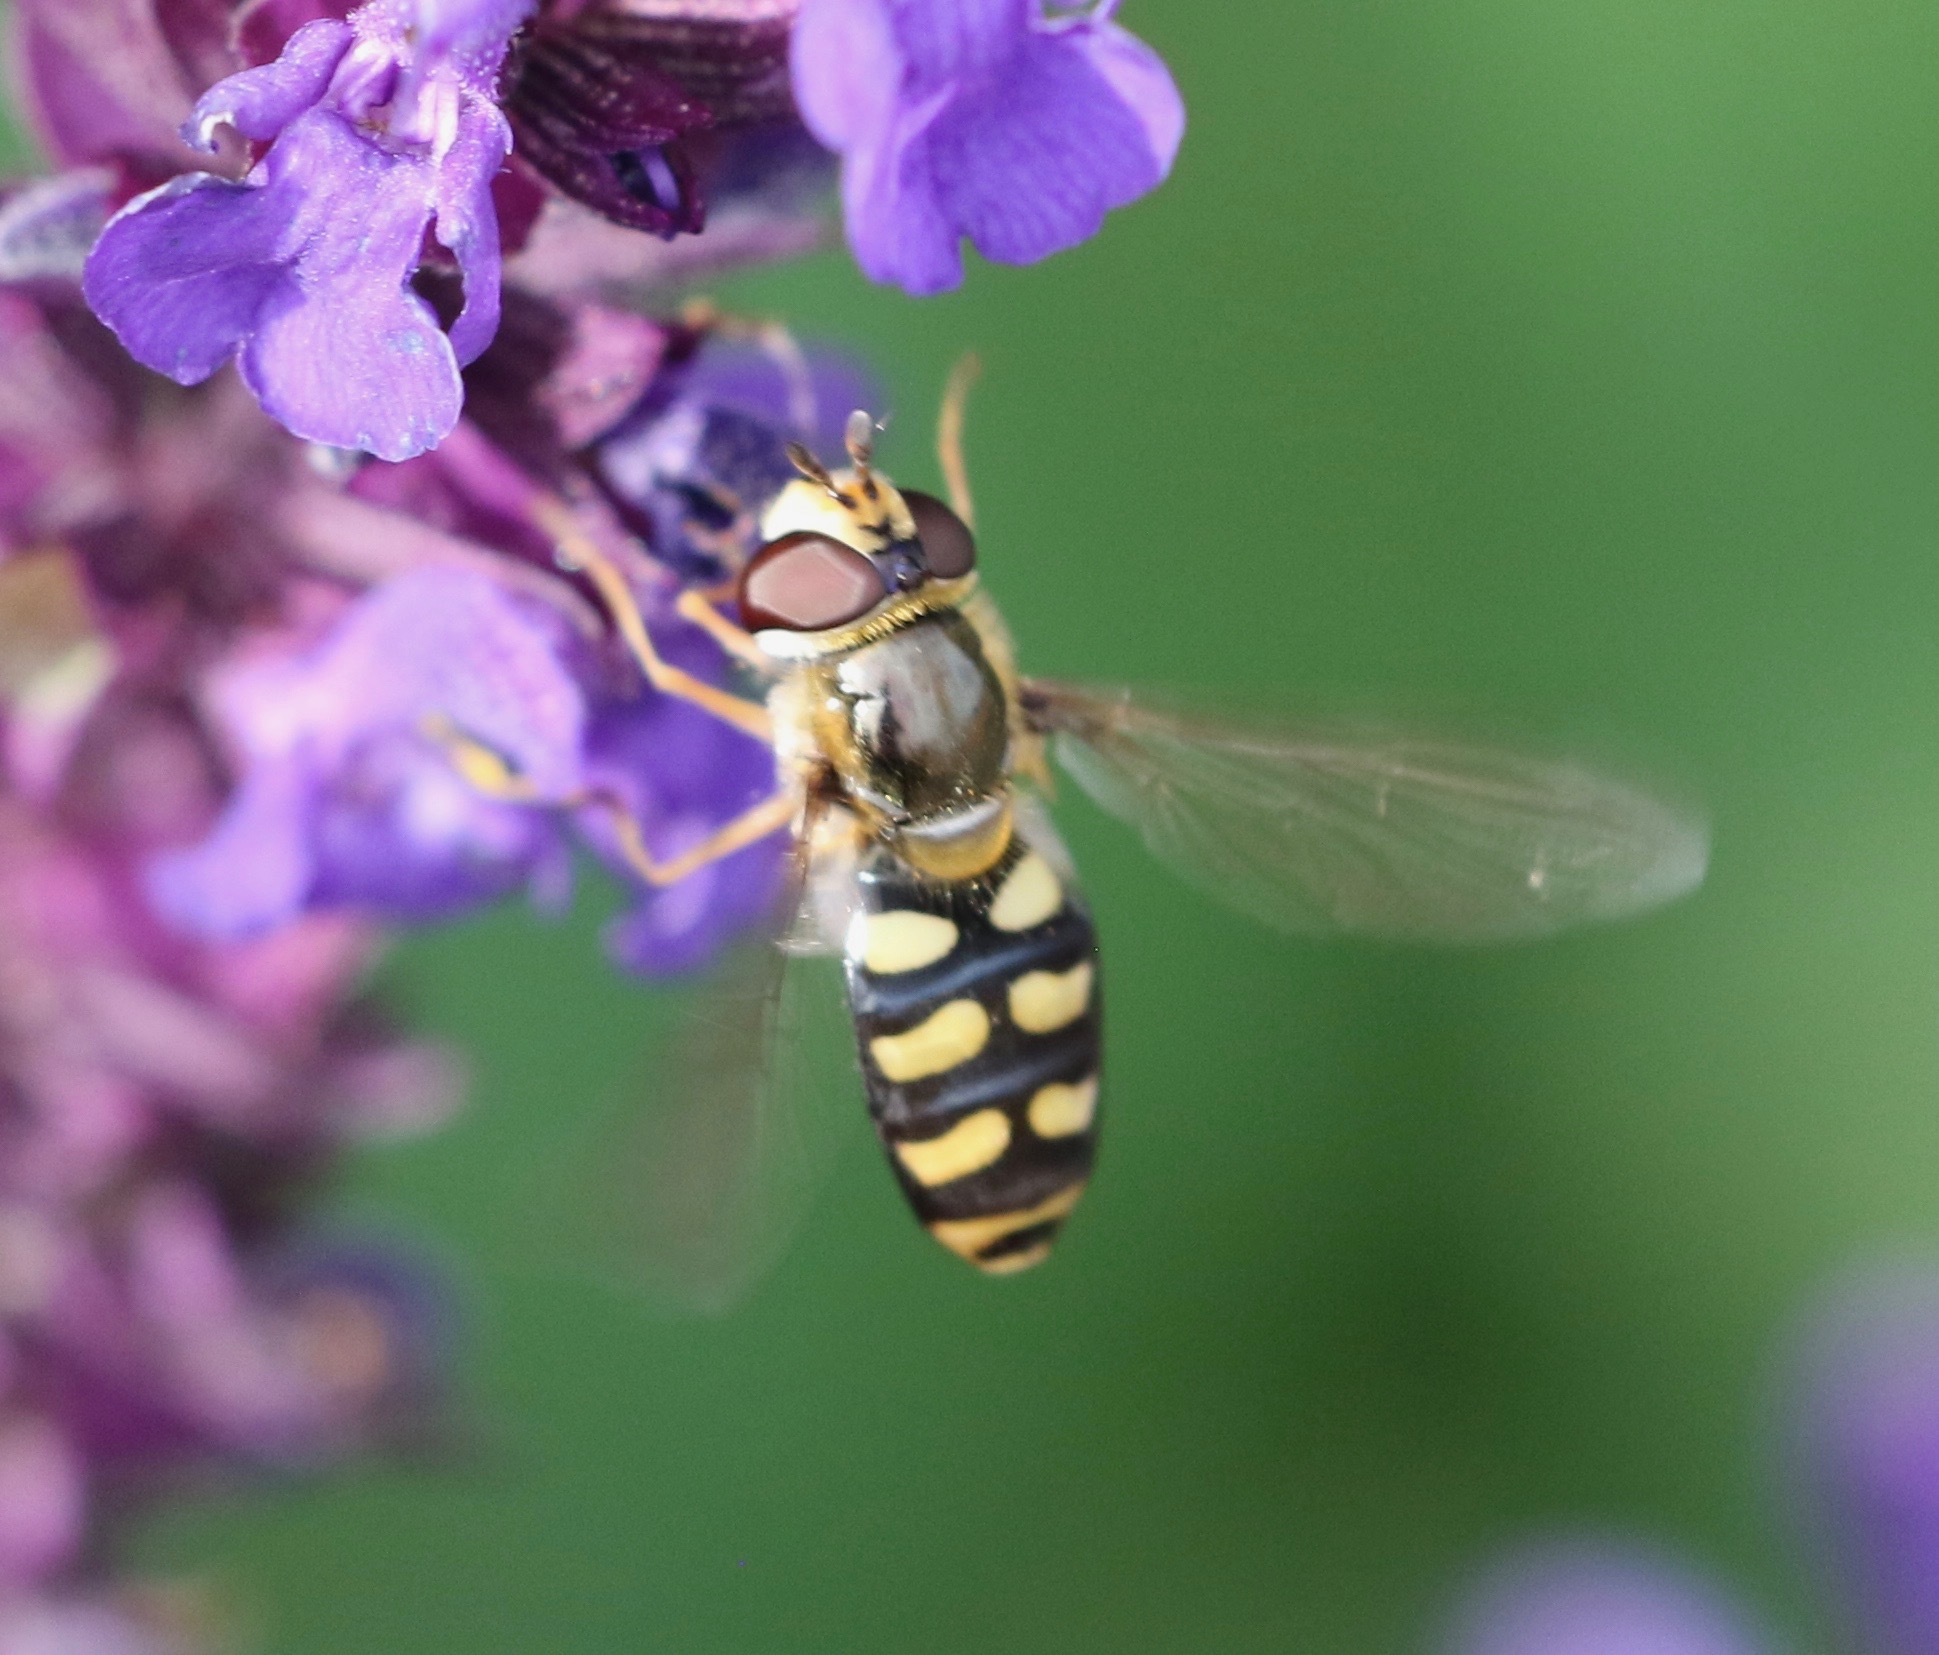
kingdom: Animalia
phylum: Arthropoda
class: Insecta
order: Diptera
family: Syrphidae
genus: Eupeodes
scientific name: Eupeodes luniger
